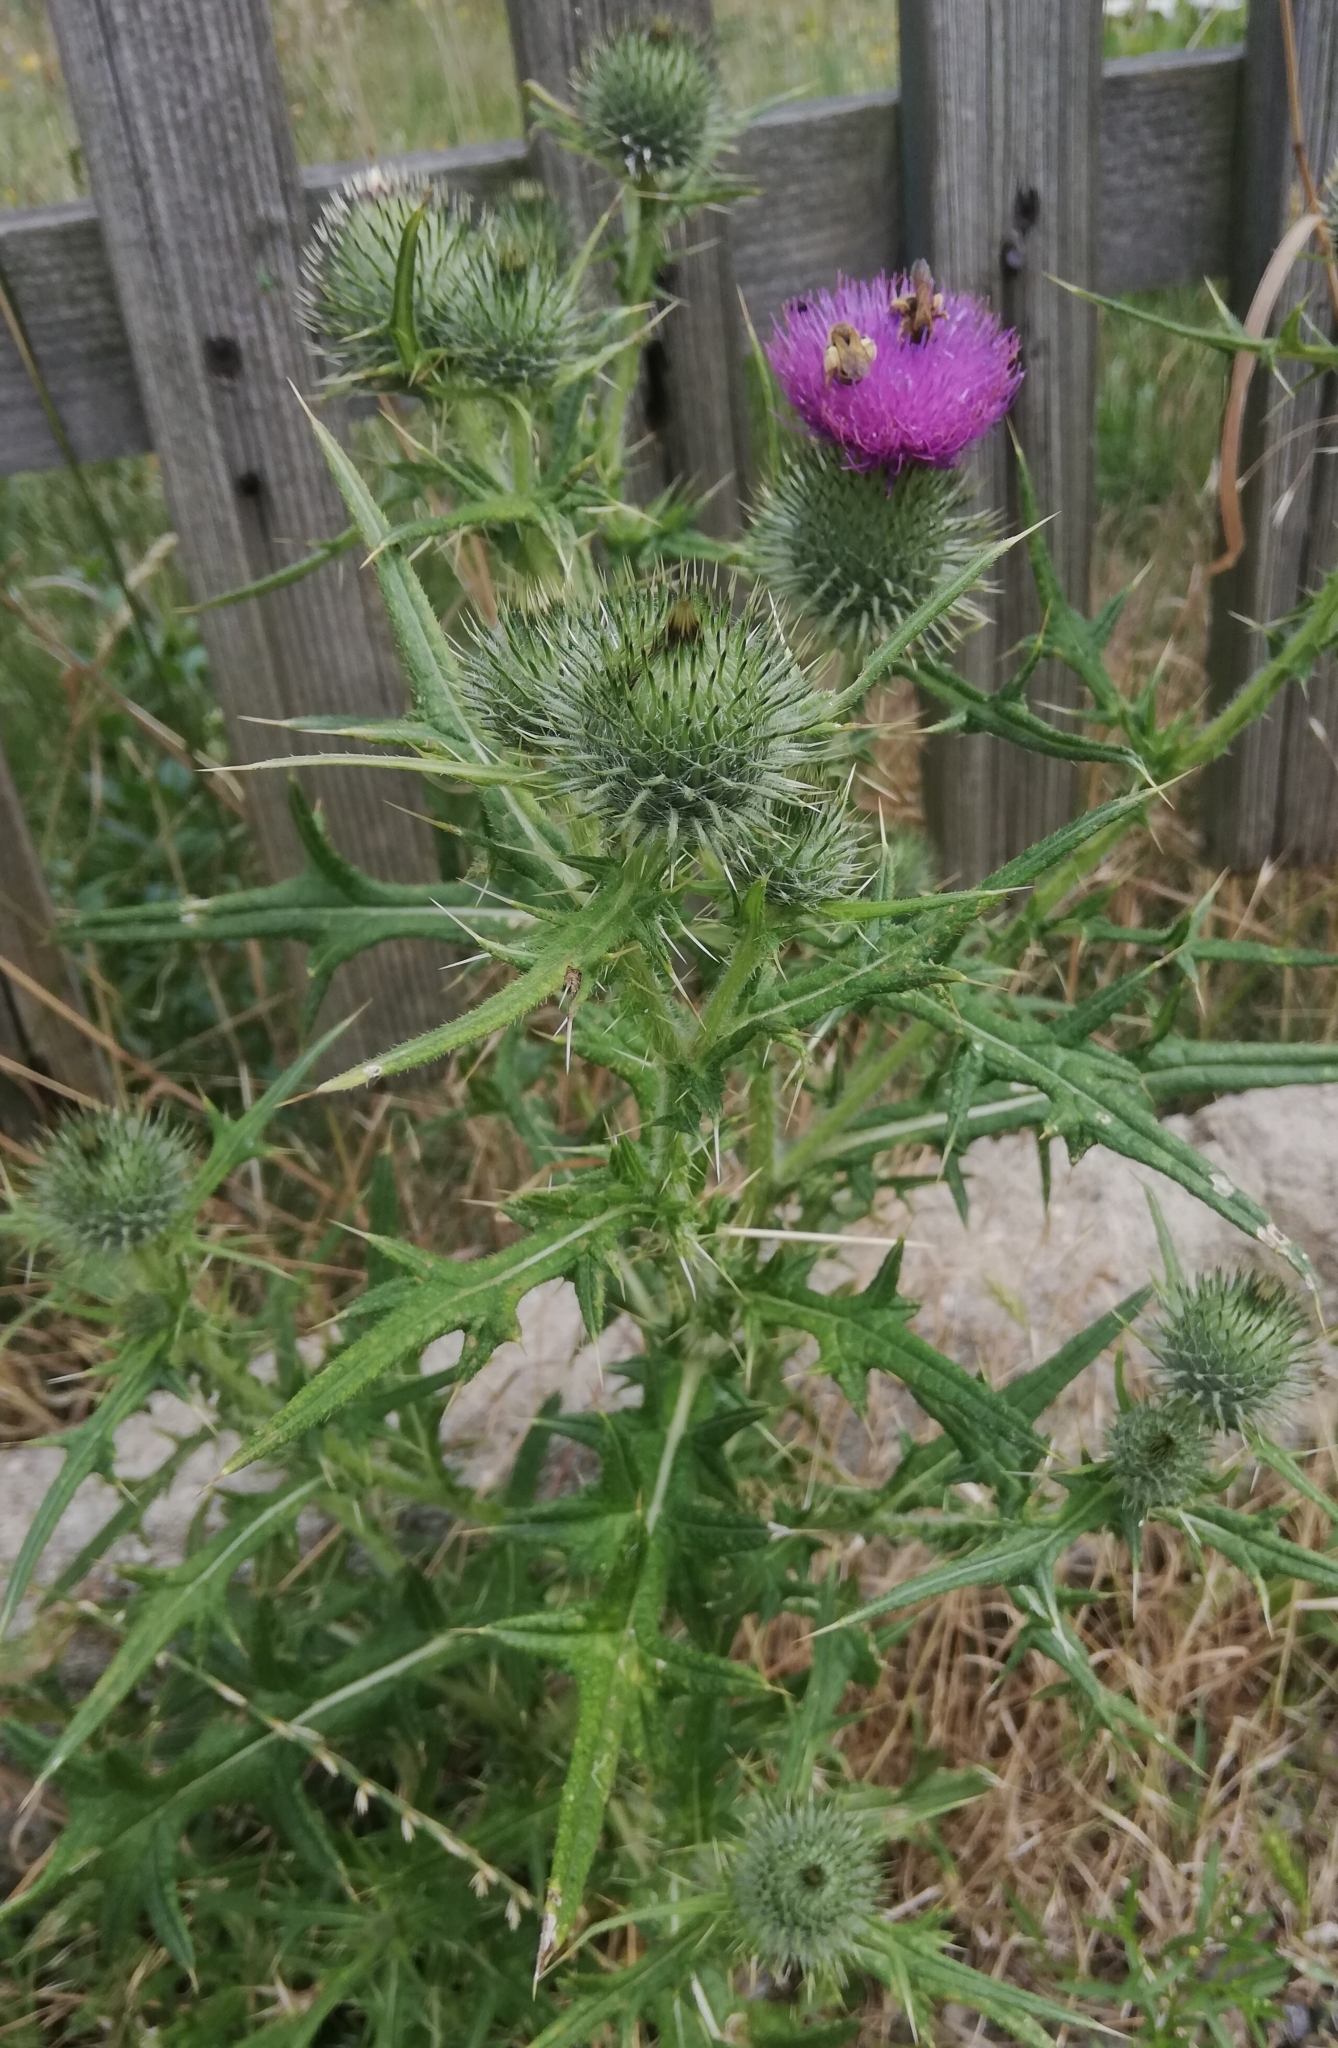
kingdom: Plantae
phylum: Tracheophyta
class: Magnoliopsida
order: Asterales
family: Asteraceae
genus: Cirsium
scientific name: Cirsium vulgare
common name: Bull thistle
